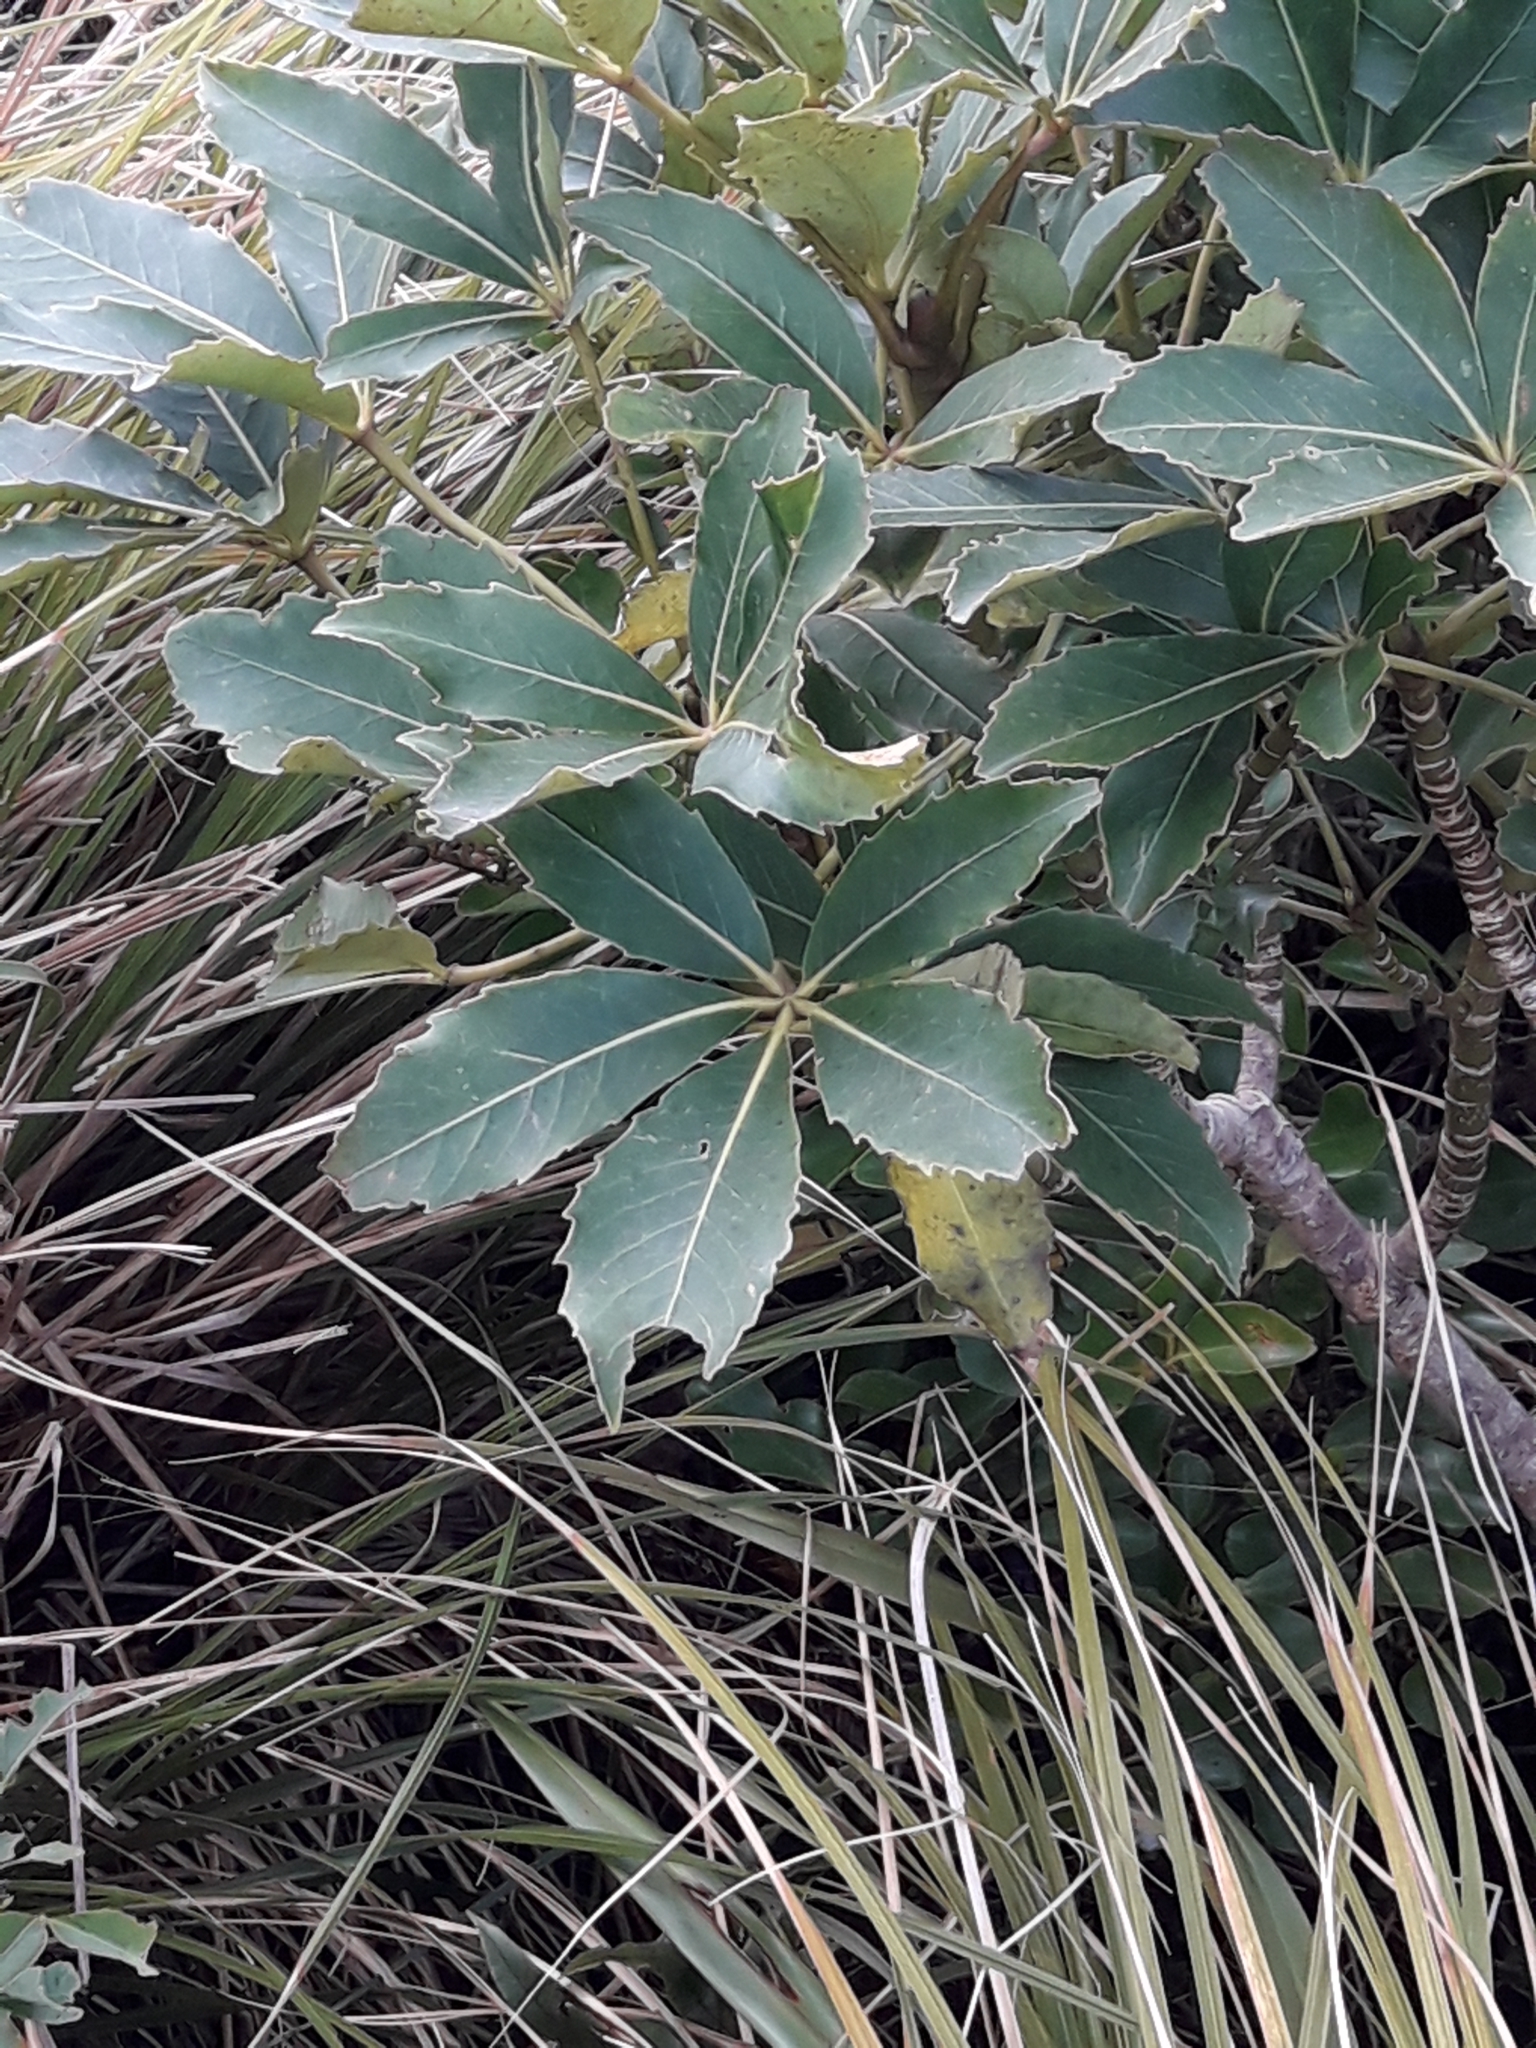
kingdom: Plantae
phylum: Tracheophyta
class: Magnoliopsida
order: Apiales
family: Araliaceae
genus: Neopanax
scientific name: Neopanax colensoi
